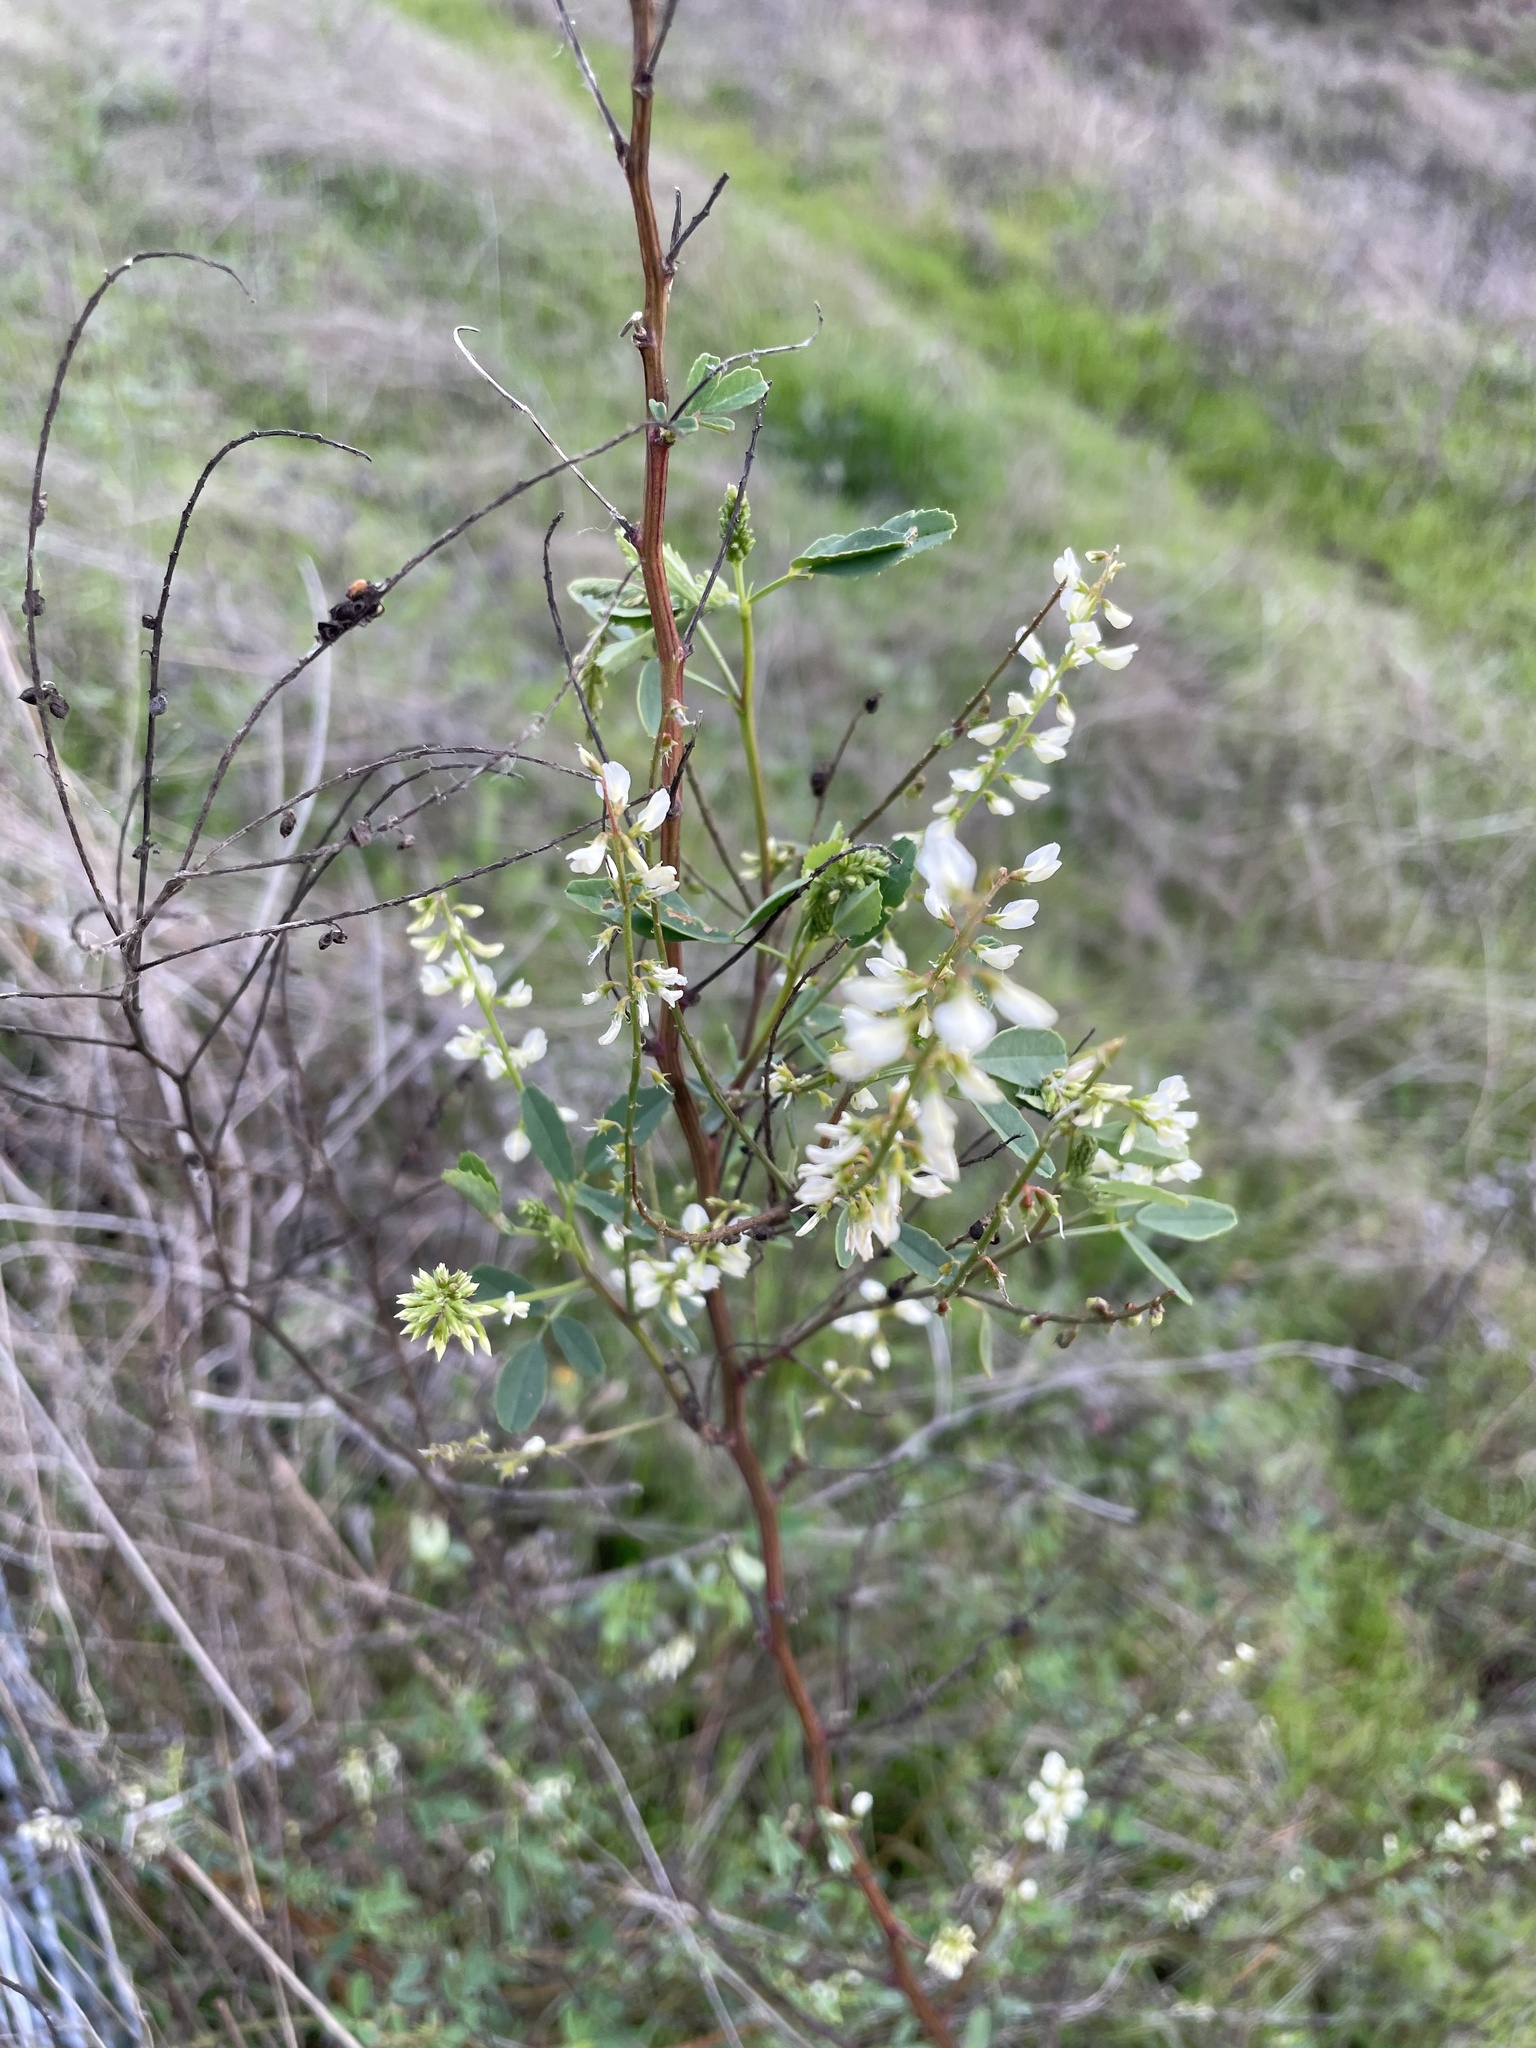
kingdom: Plantae
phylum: Tracheophyta
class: Magnoliopsida
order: Fabales
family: Fabaceae
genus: Melilotus
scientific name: Melilotus albus
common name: White melilot
